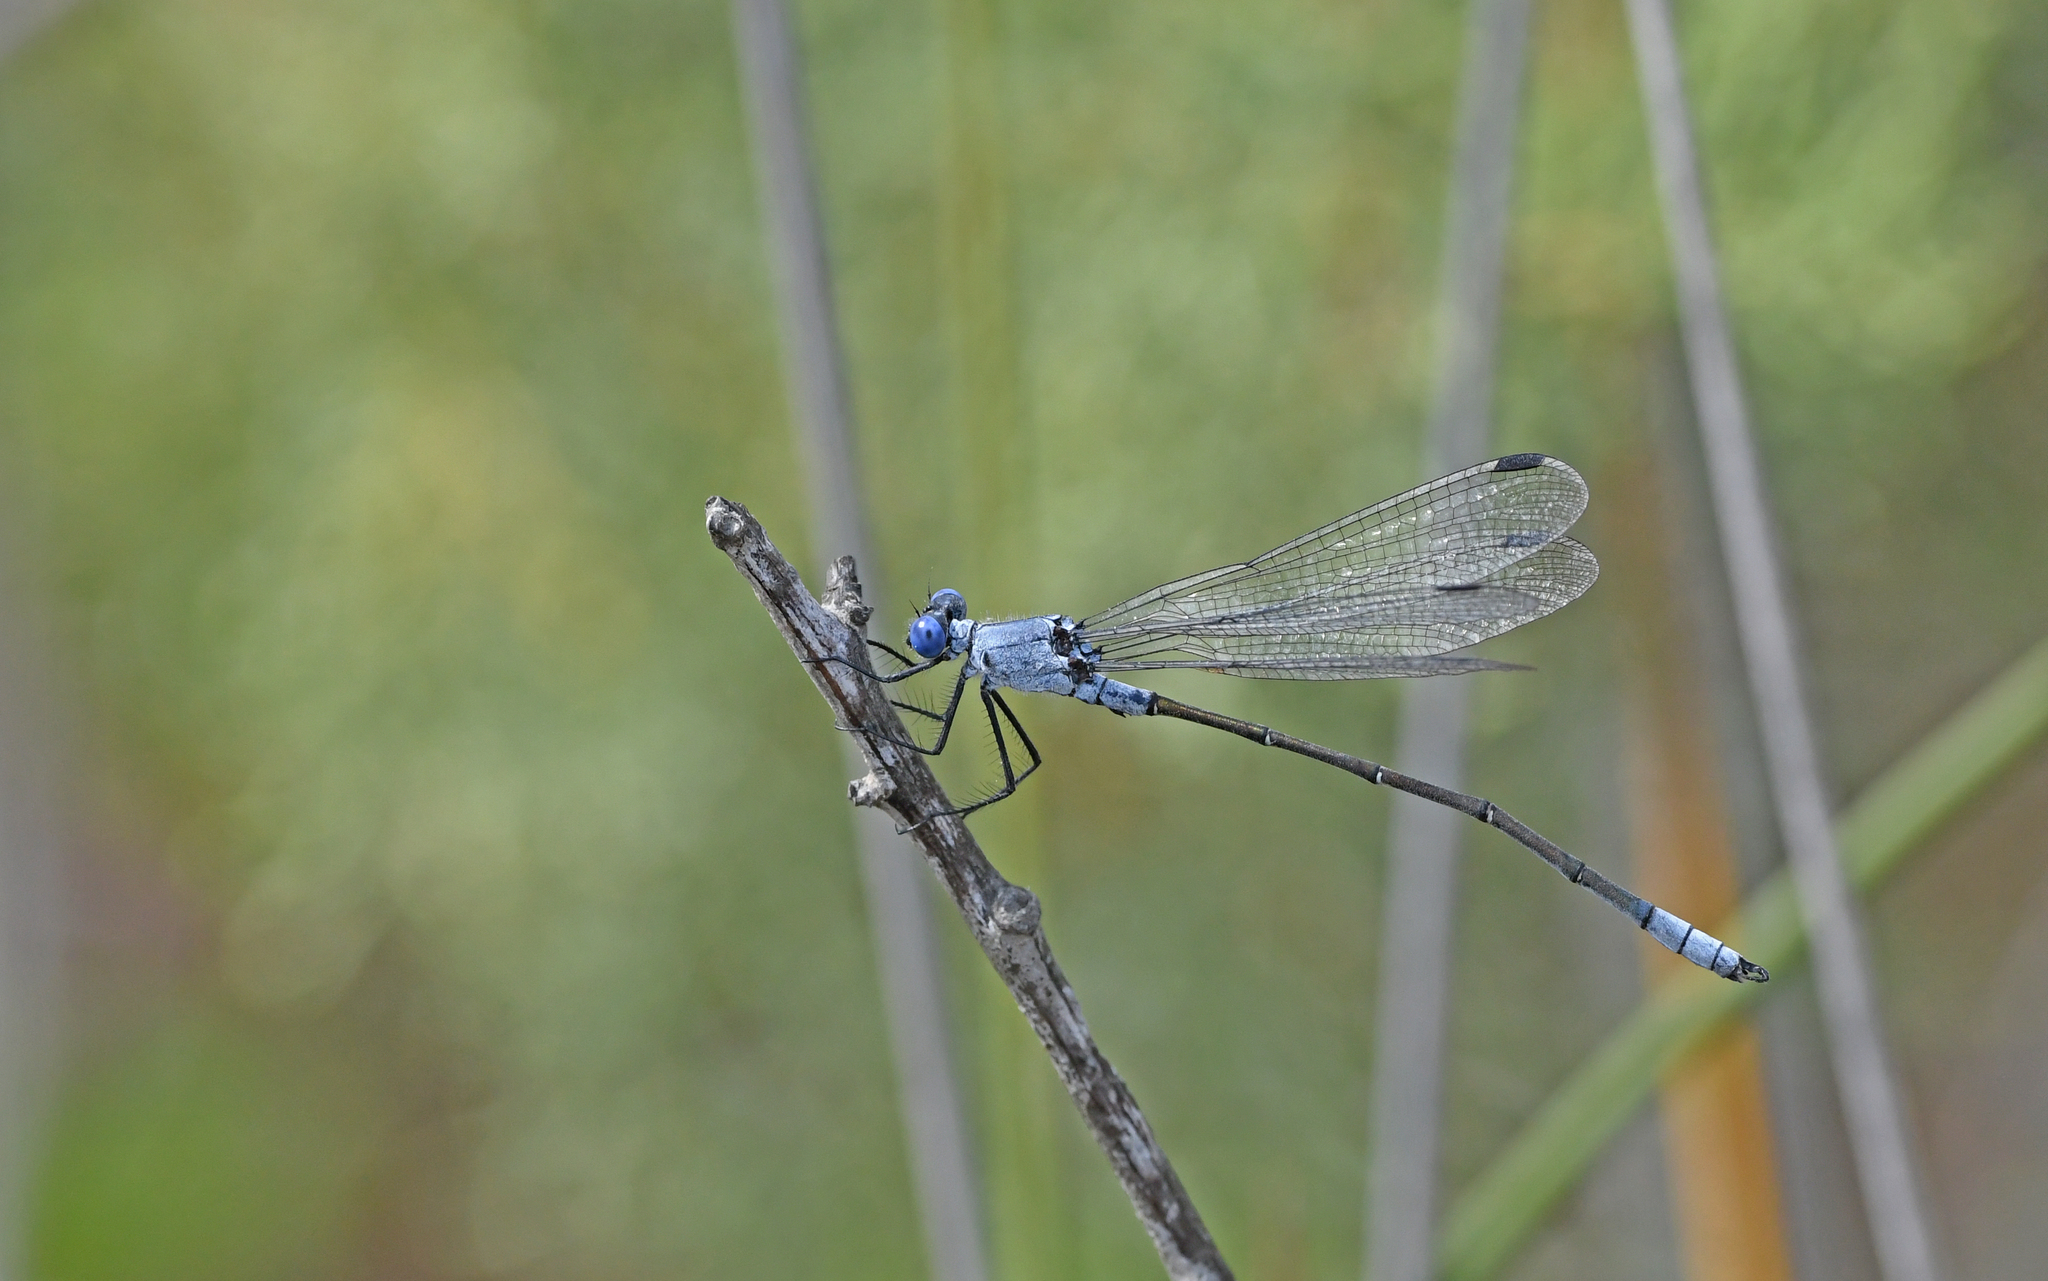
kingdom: Animalia
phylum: Arthropoda
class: Insecta
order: Odonata
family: Lestidae
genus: Lestes
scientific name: Lestes macrostigma
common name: Dark spreadwing
